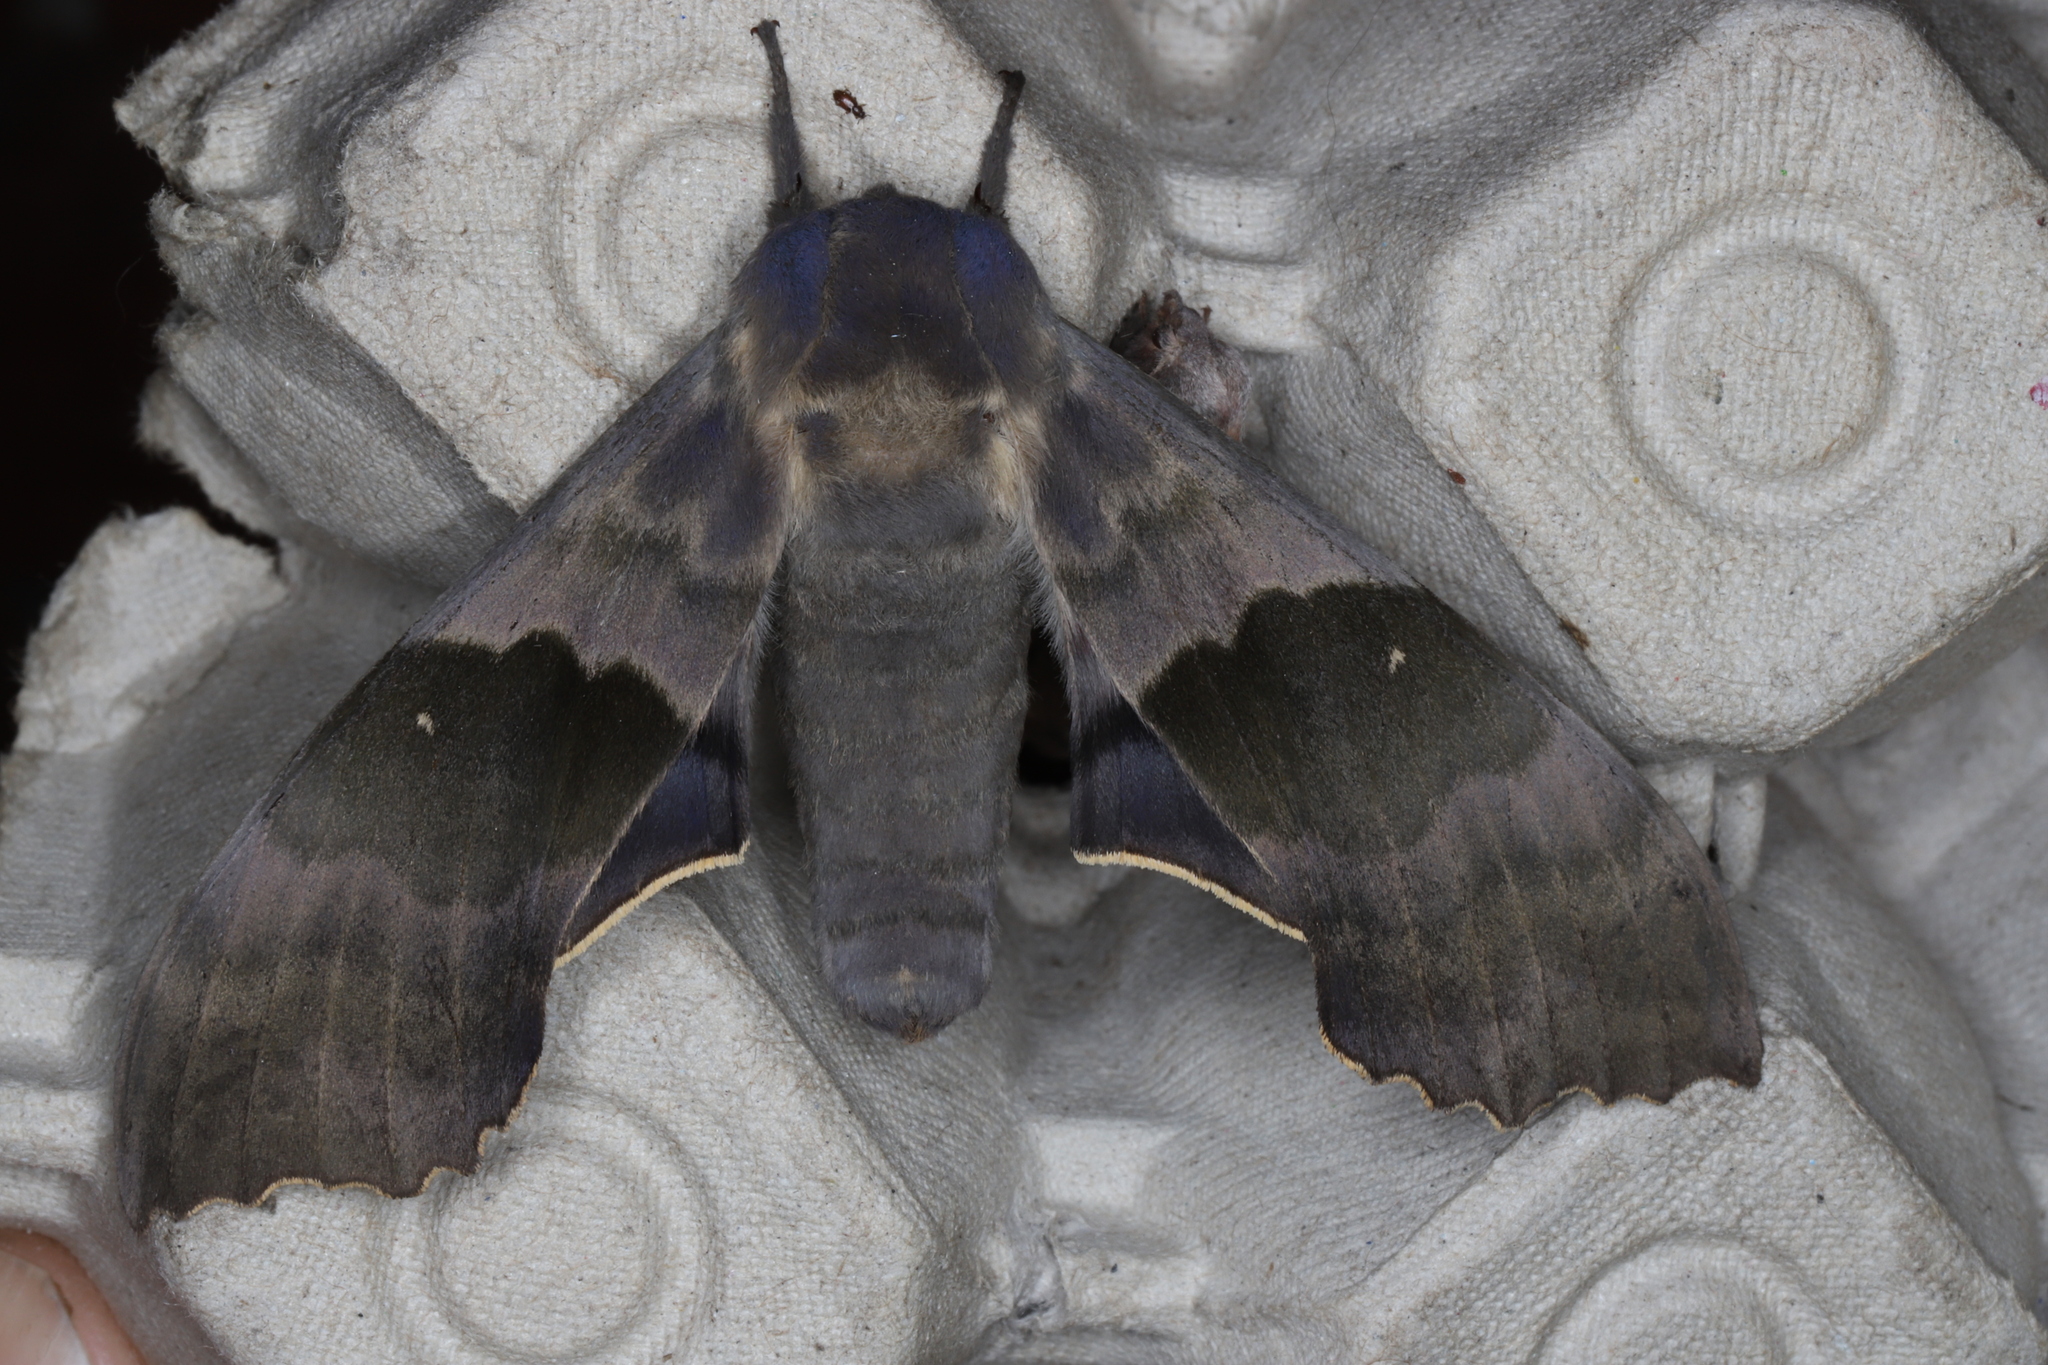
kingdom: Animalia
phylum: Arthropoda
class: Insecta
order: Lepidoptera
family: Sphingidae
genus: Pachysphinx
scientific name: Pachysphinx modesta
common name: Big poplar sphinx
